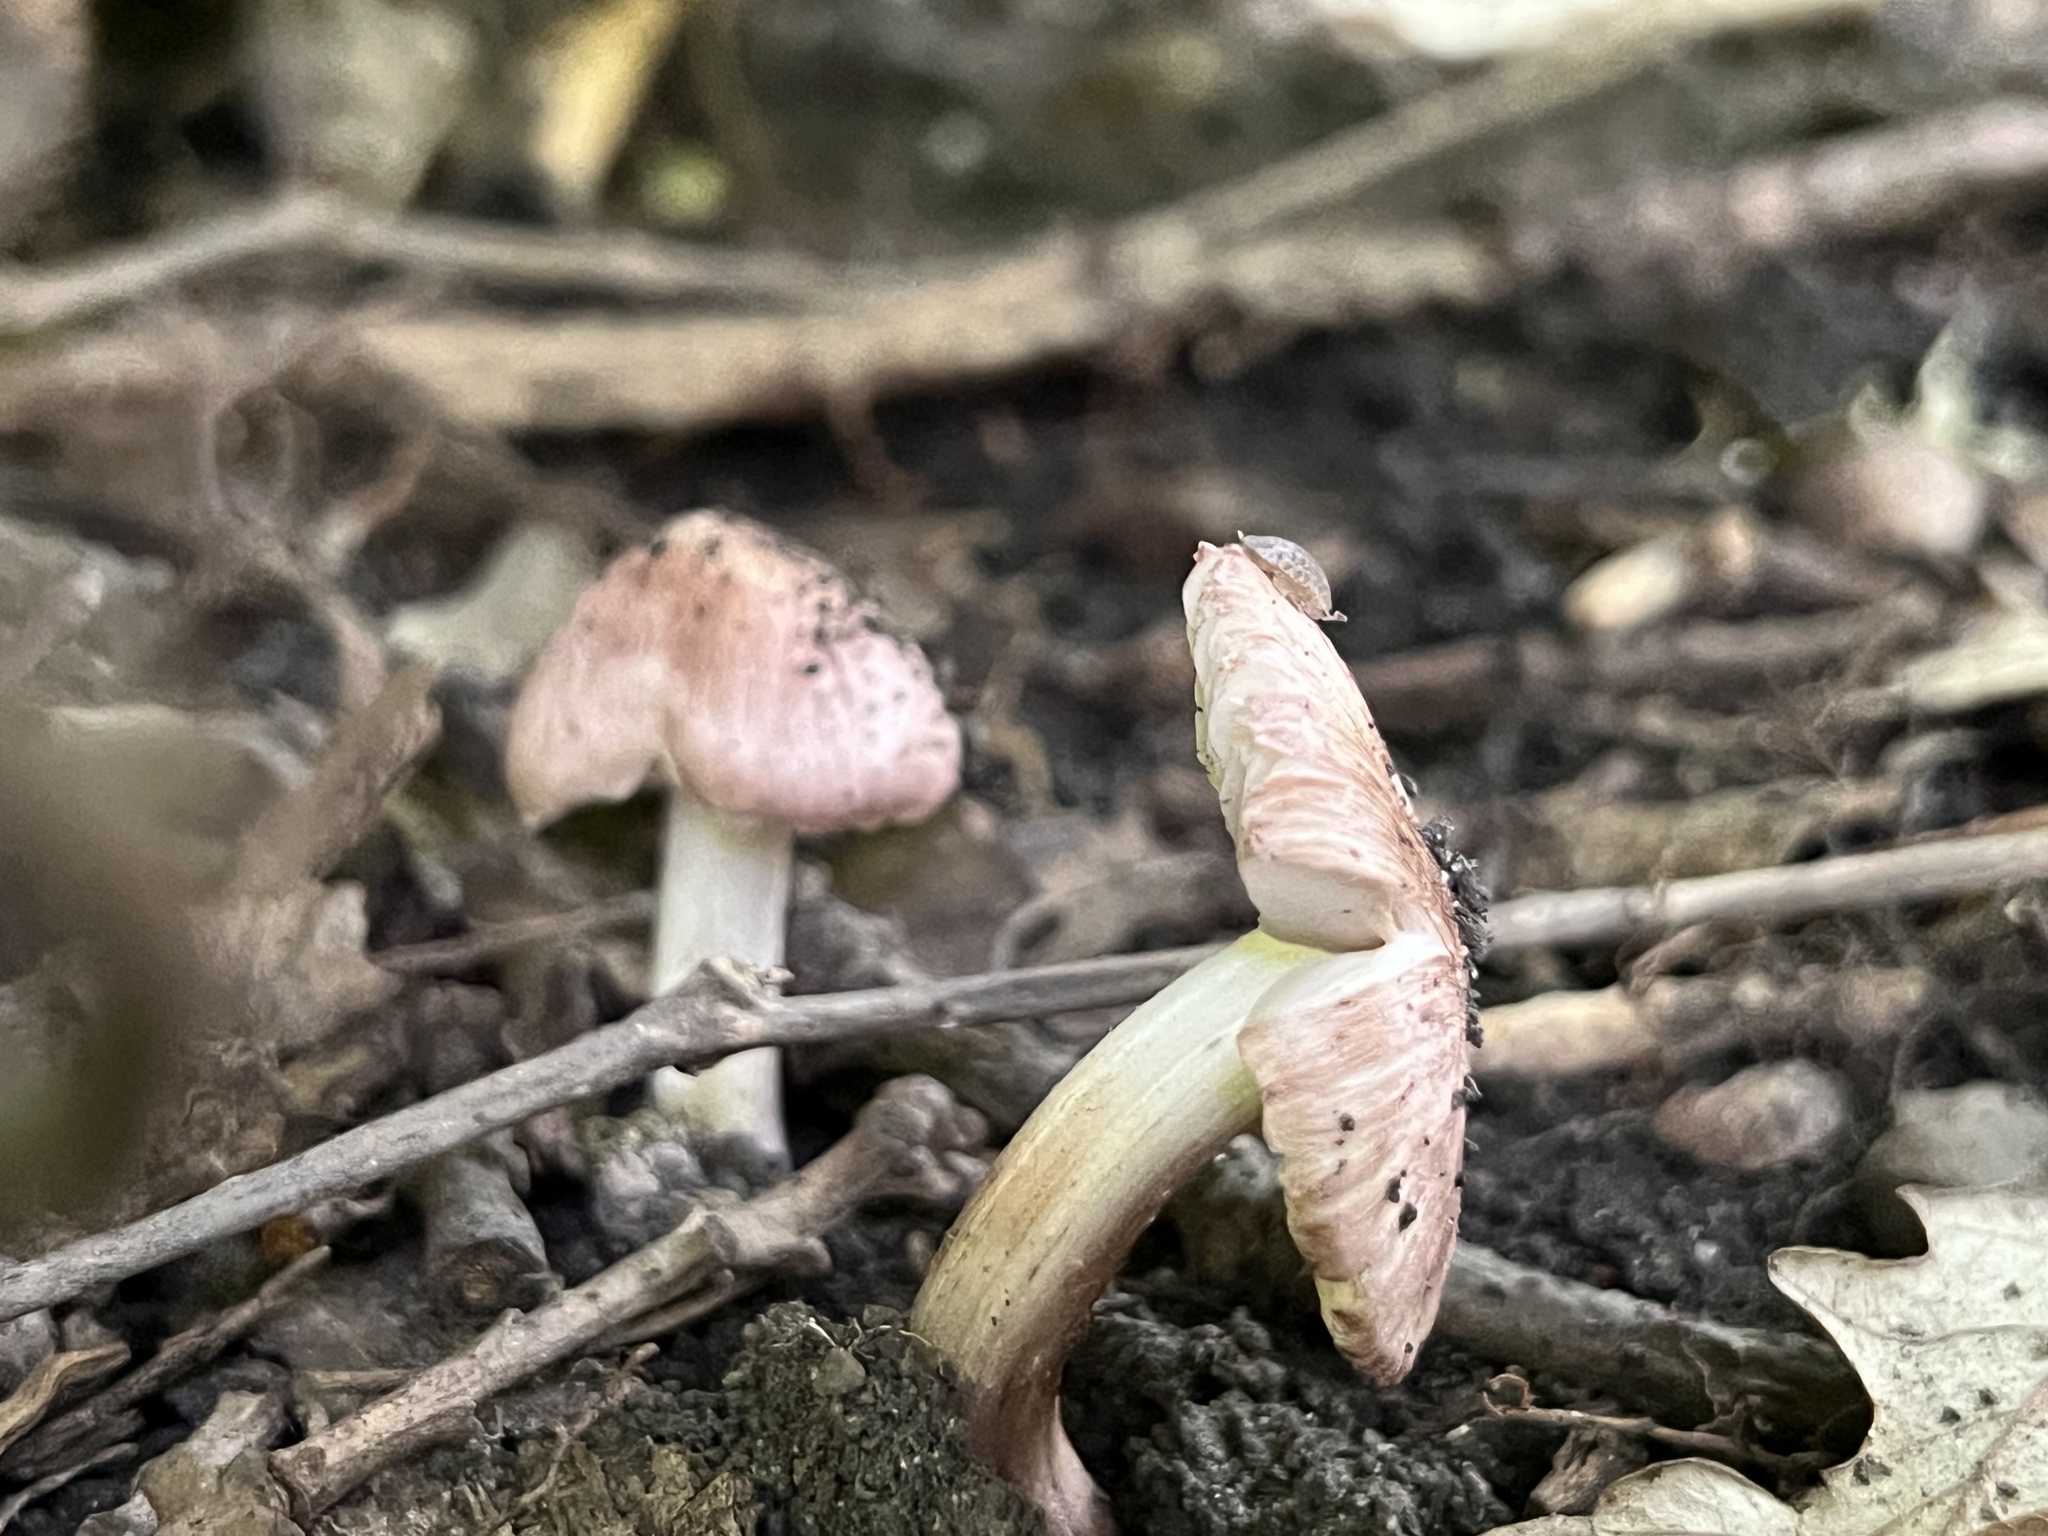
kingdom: Fungi
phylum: Basidiomycota
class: Agaricomycetes
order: Agaricales
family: Inocybaceae
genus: Inosperma
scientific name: Inosperma vinaceobrunneum
